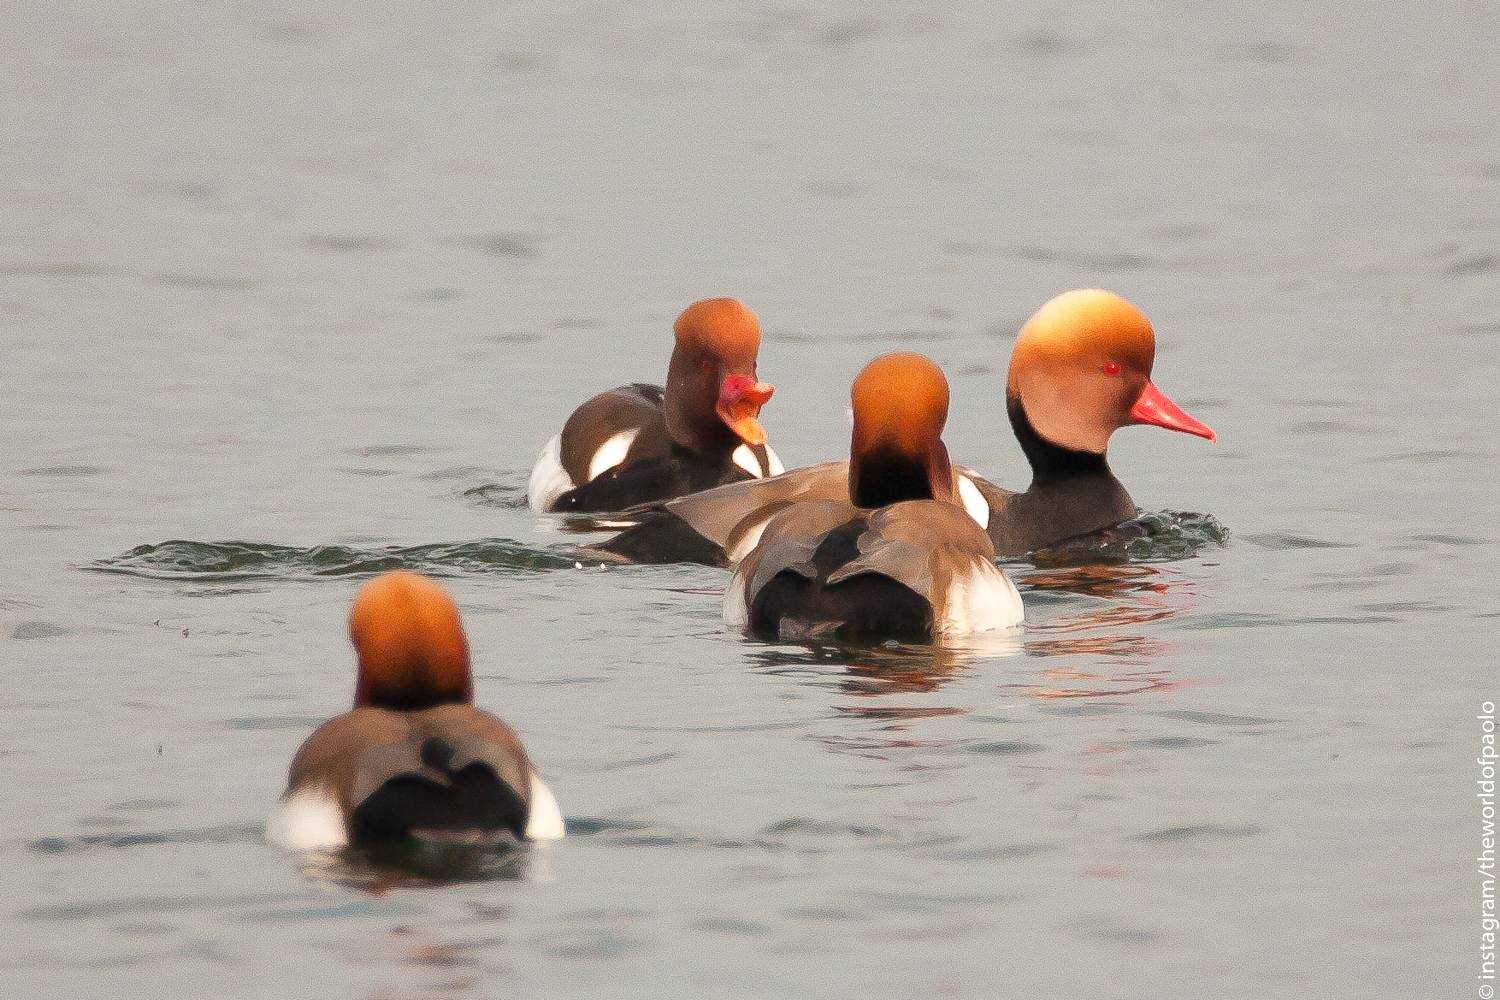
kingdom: Animalia
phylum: Chordata
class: Aves
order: Anseriformes
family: Anatidae
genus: Netta
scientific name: Netta rufina
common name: Red-crested pochard
